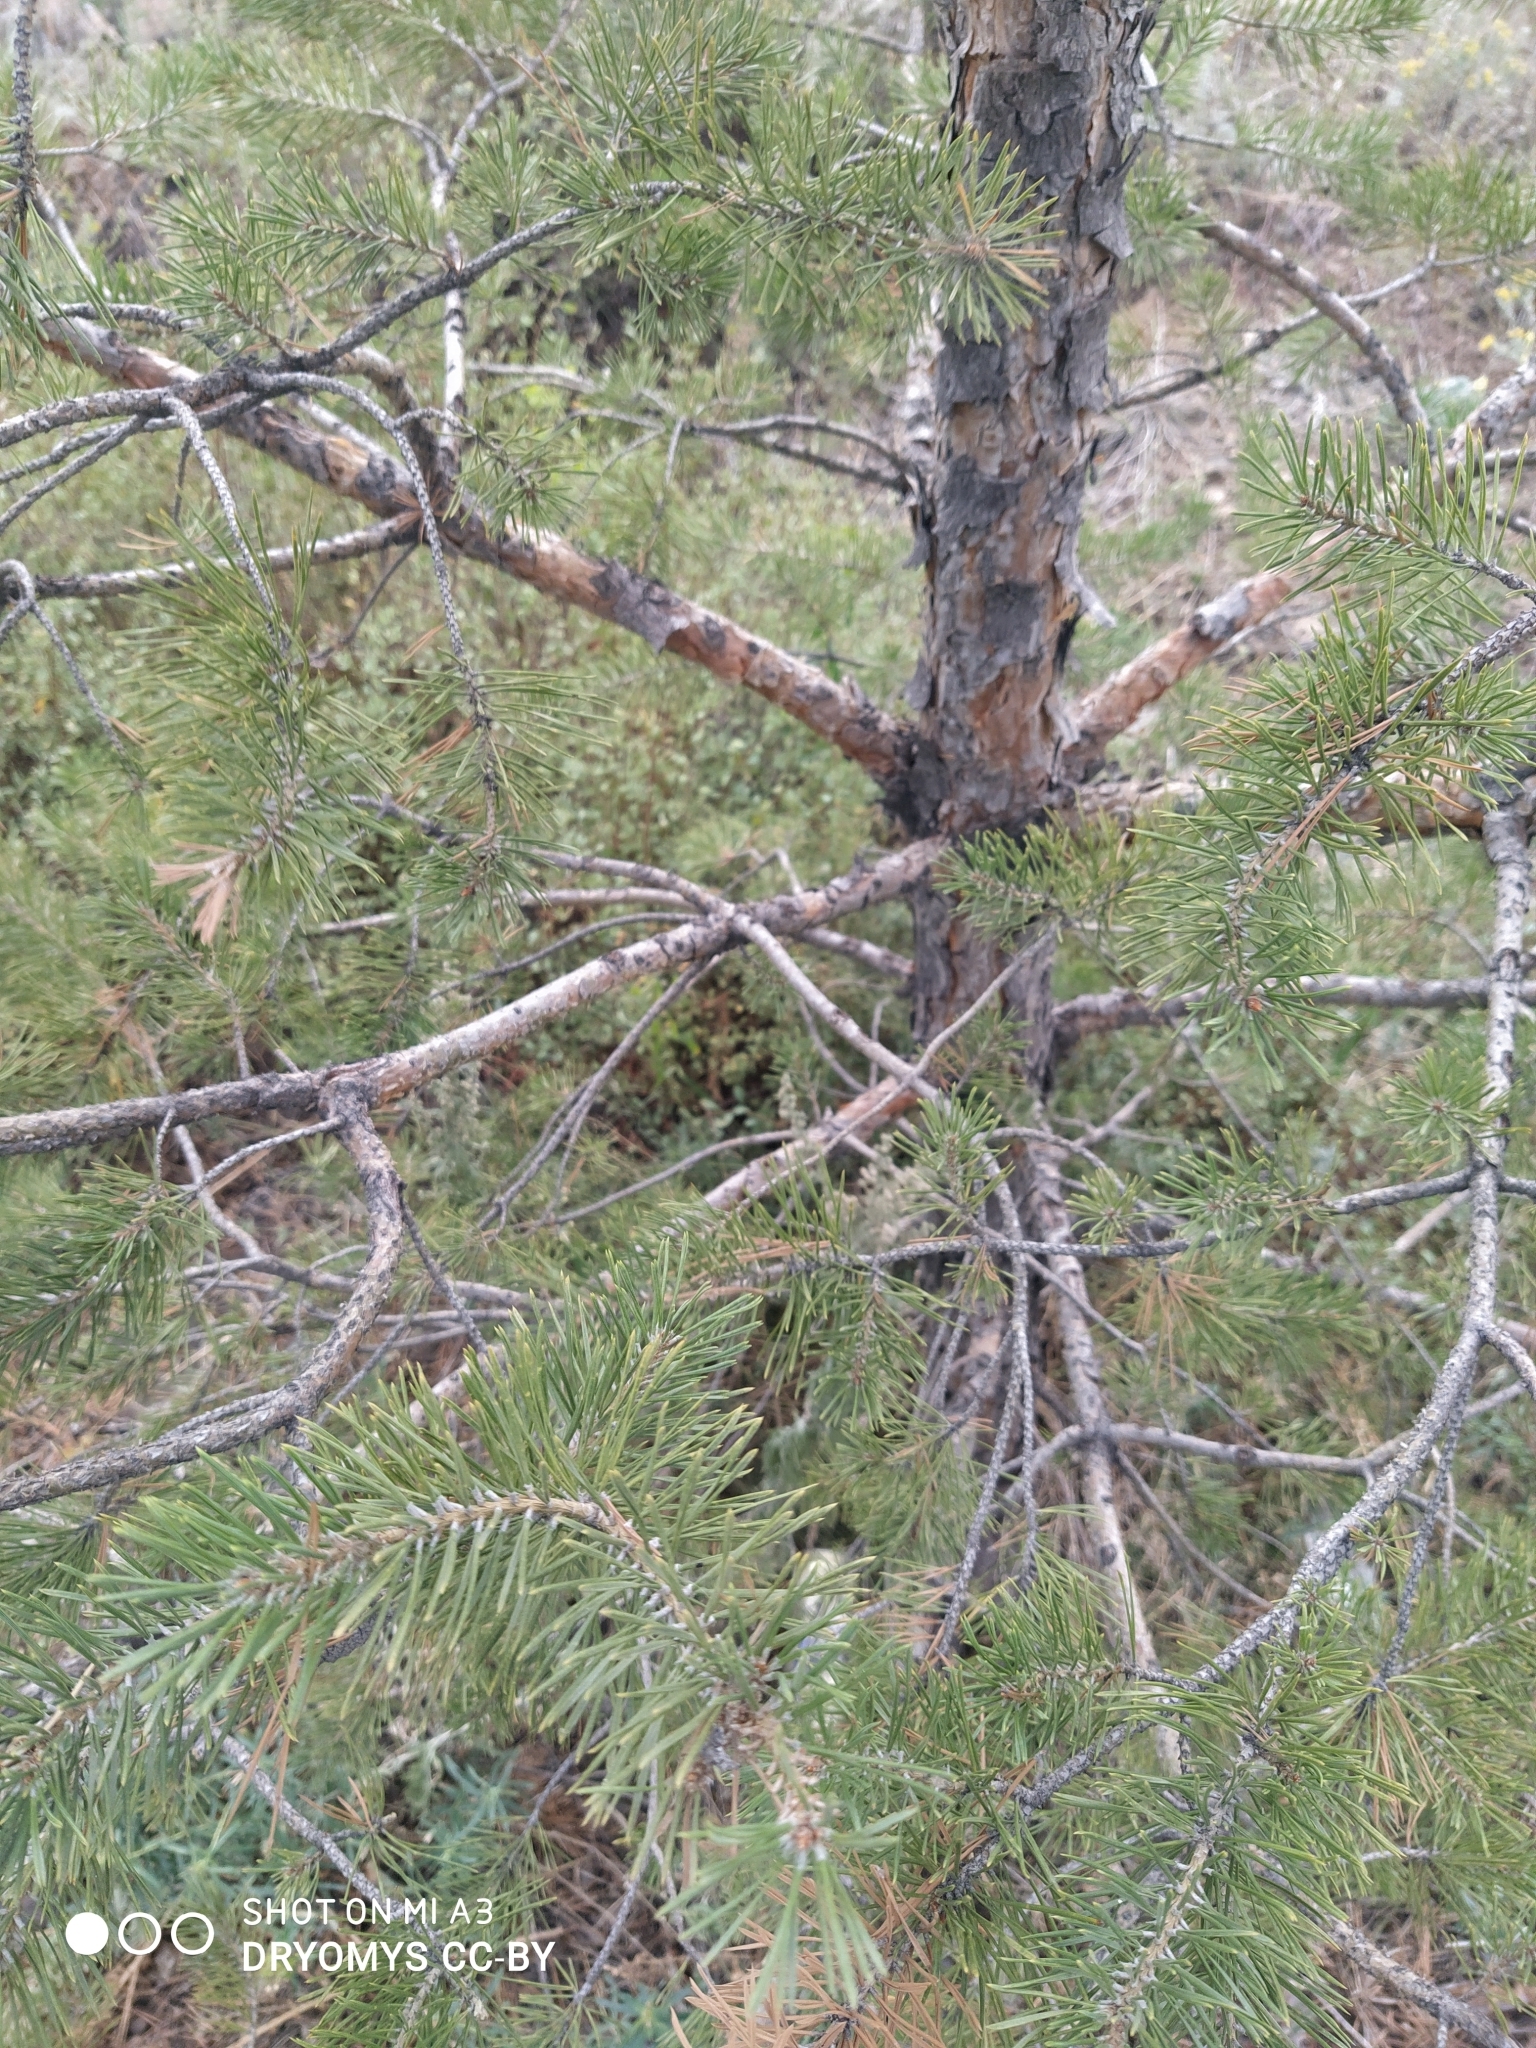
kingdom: Plantae
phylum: Tracheophyta
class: Pinopsida
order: Pinales
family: Pinaceae
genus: Pinus
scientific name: Pinus sylvestris
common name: Scots pine
